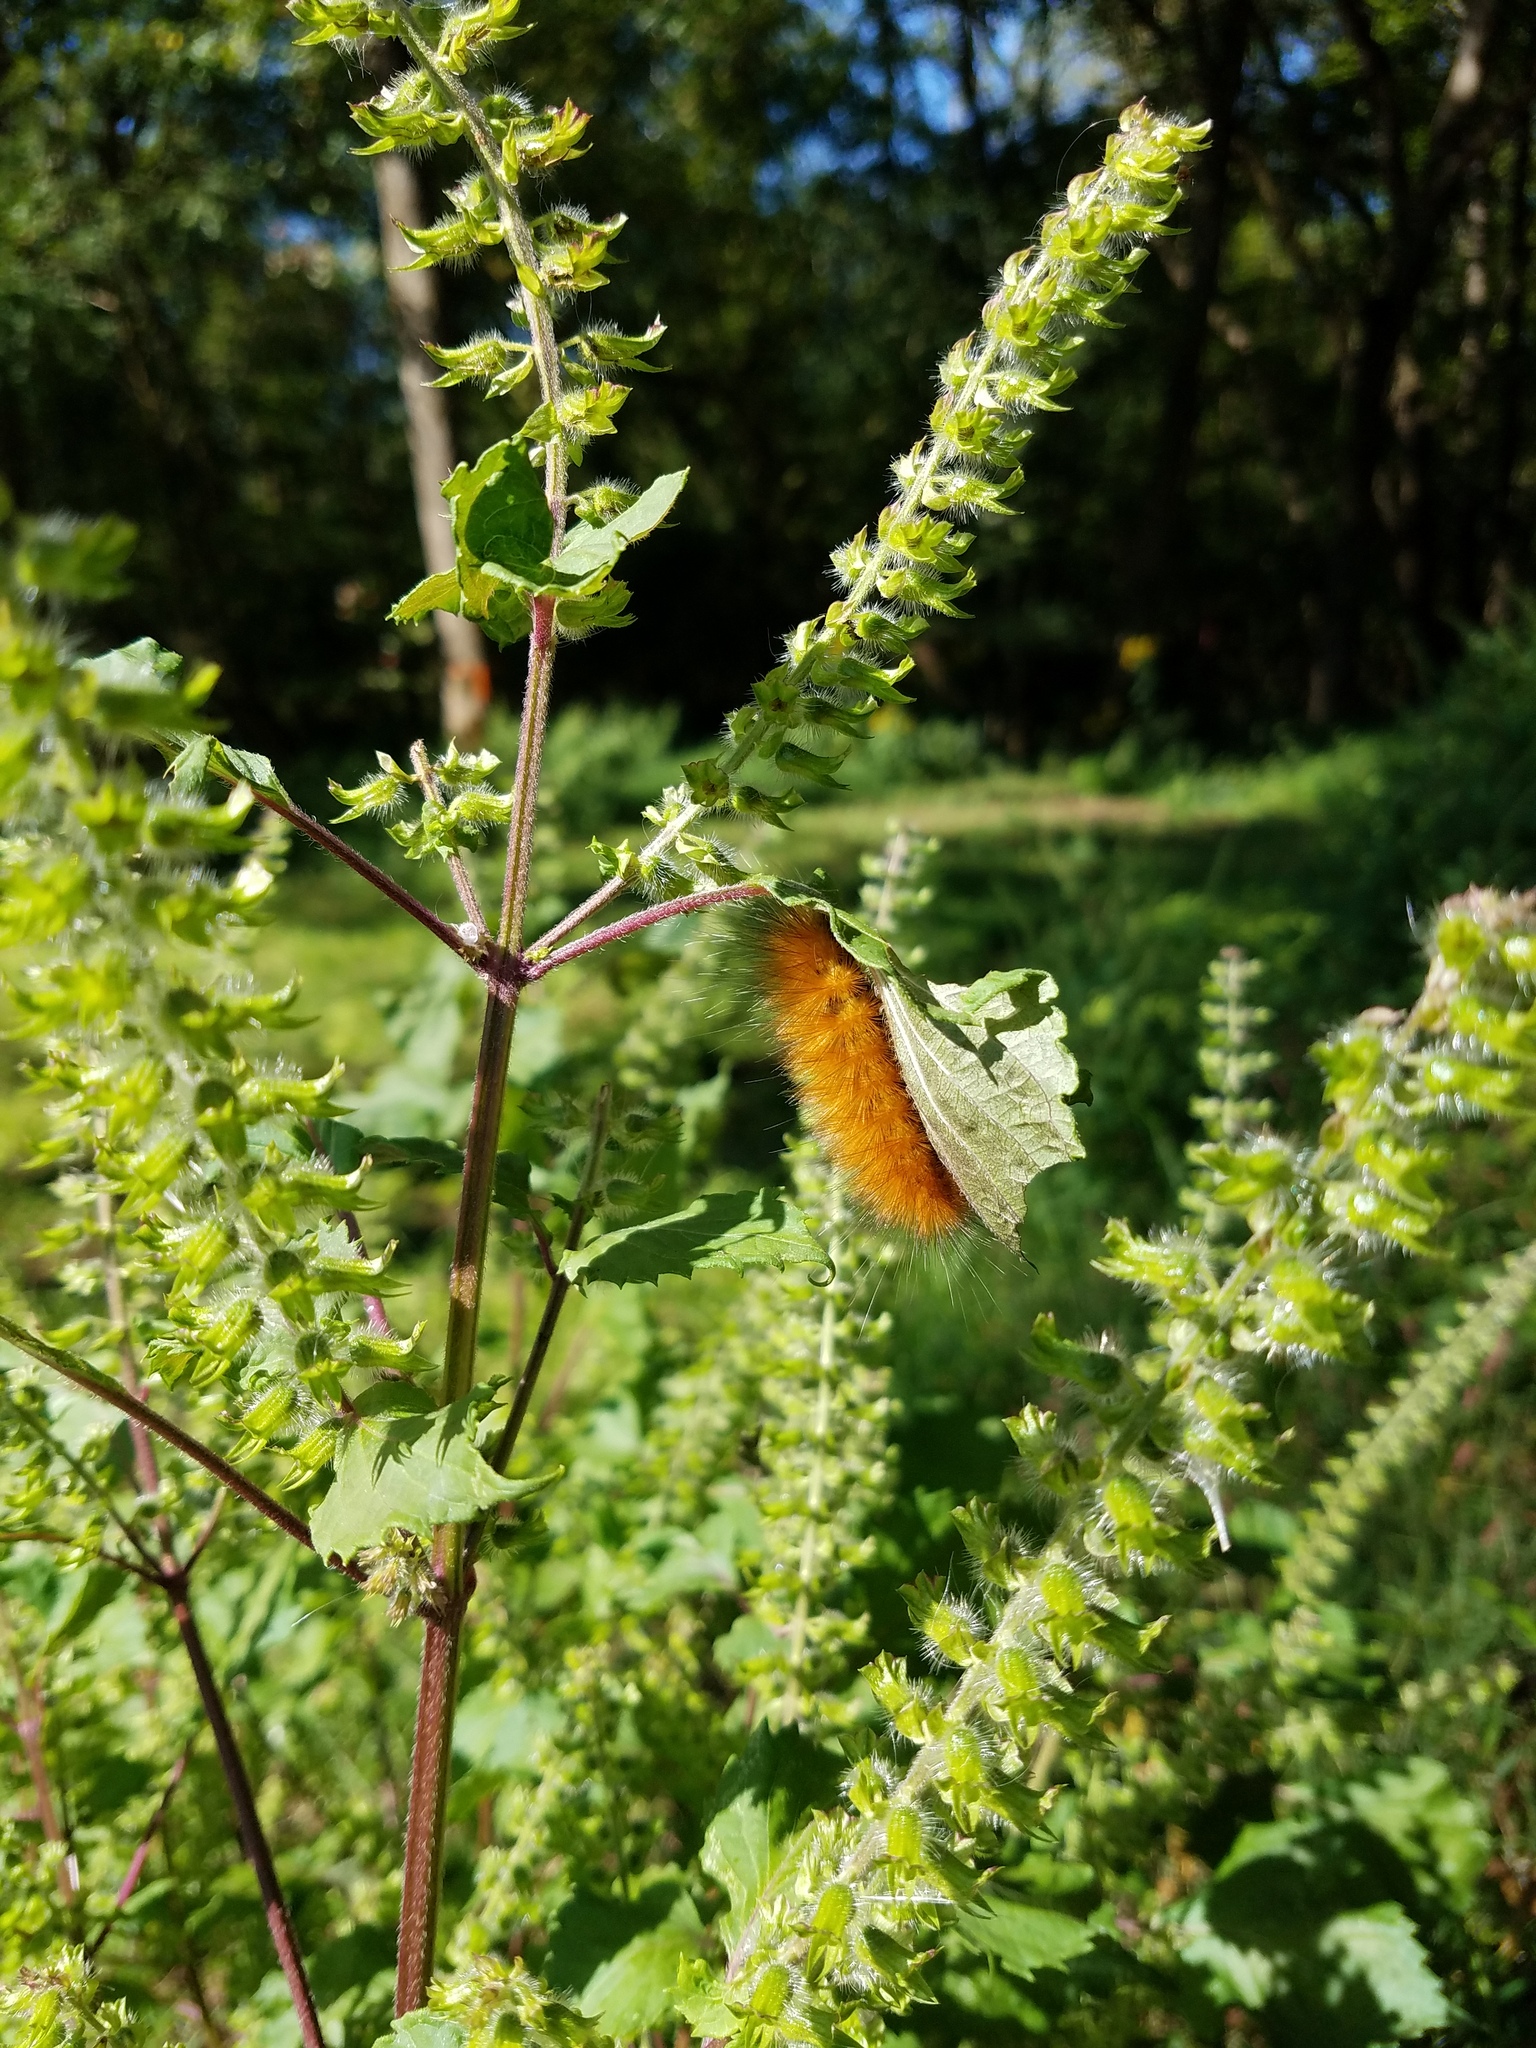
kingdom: Plantae
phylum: Tracheophyta
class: Magnoliopsida
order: Lamiales
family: Lamiaceae
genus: Perilla
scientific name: Perilla frutescens
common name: Perilla
